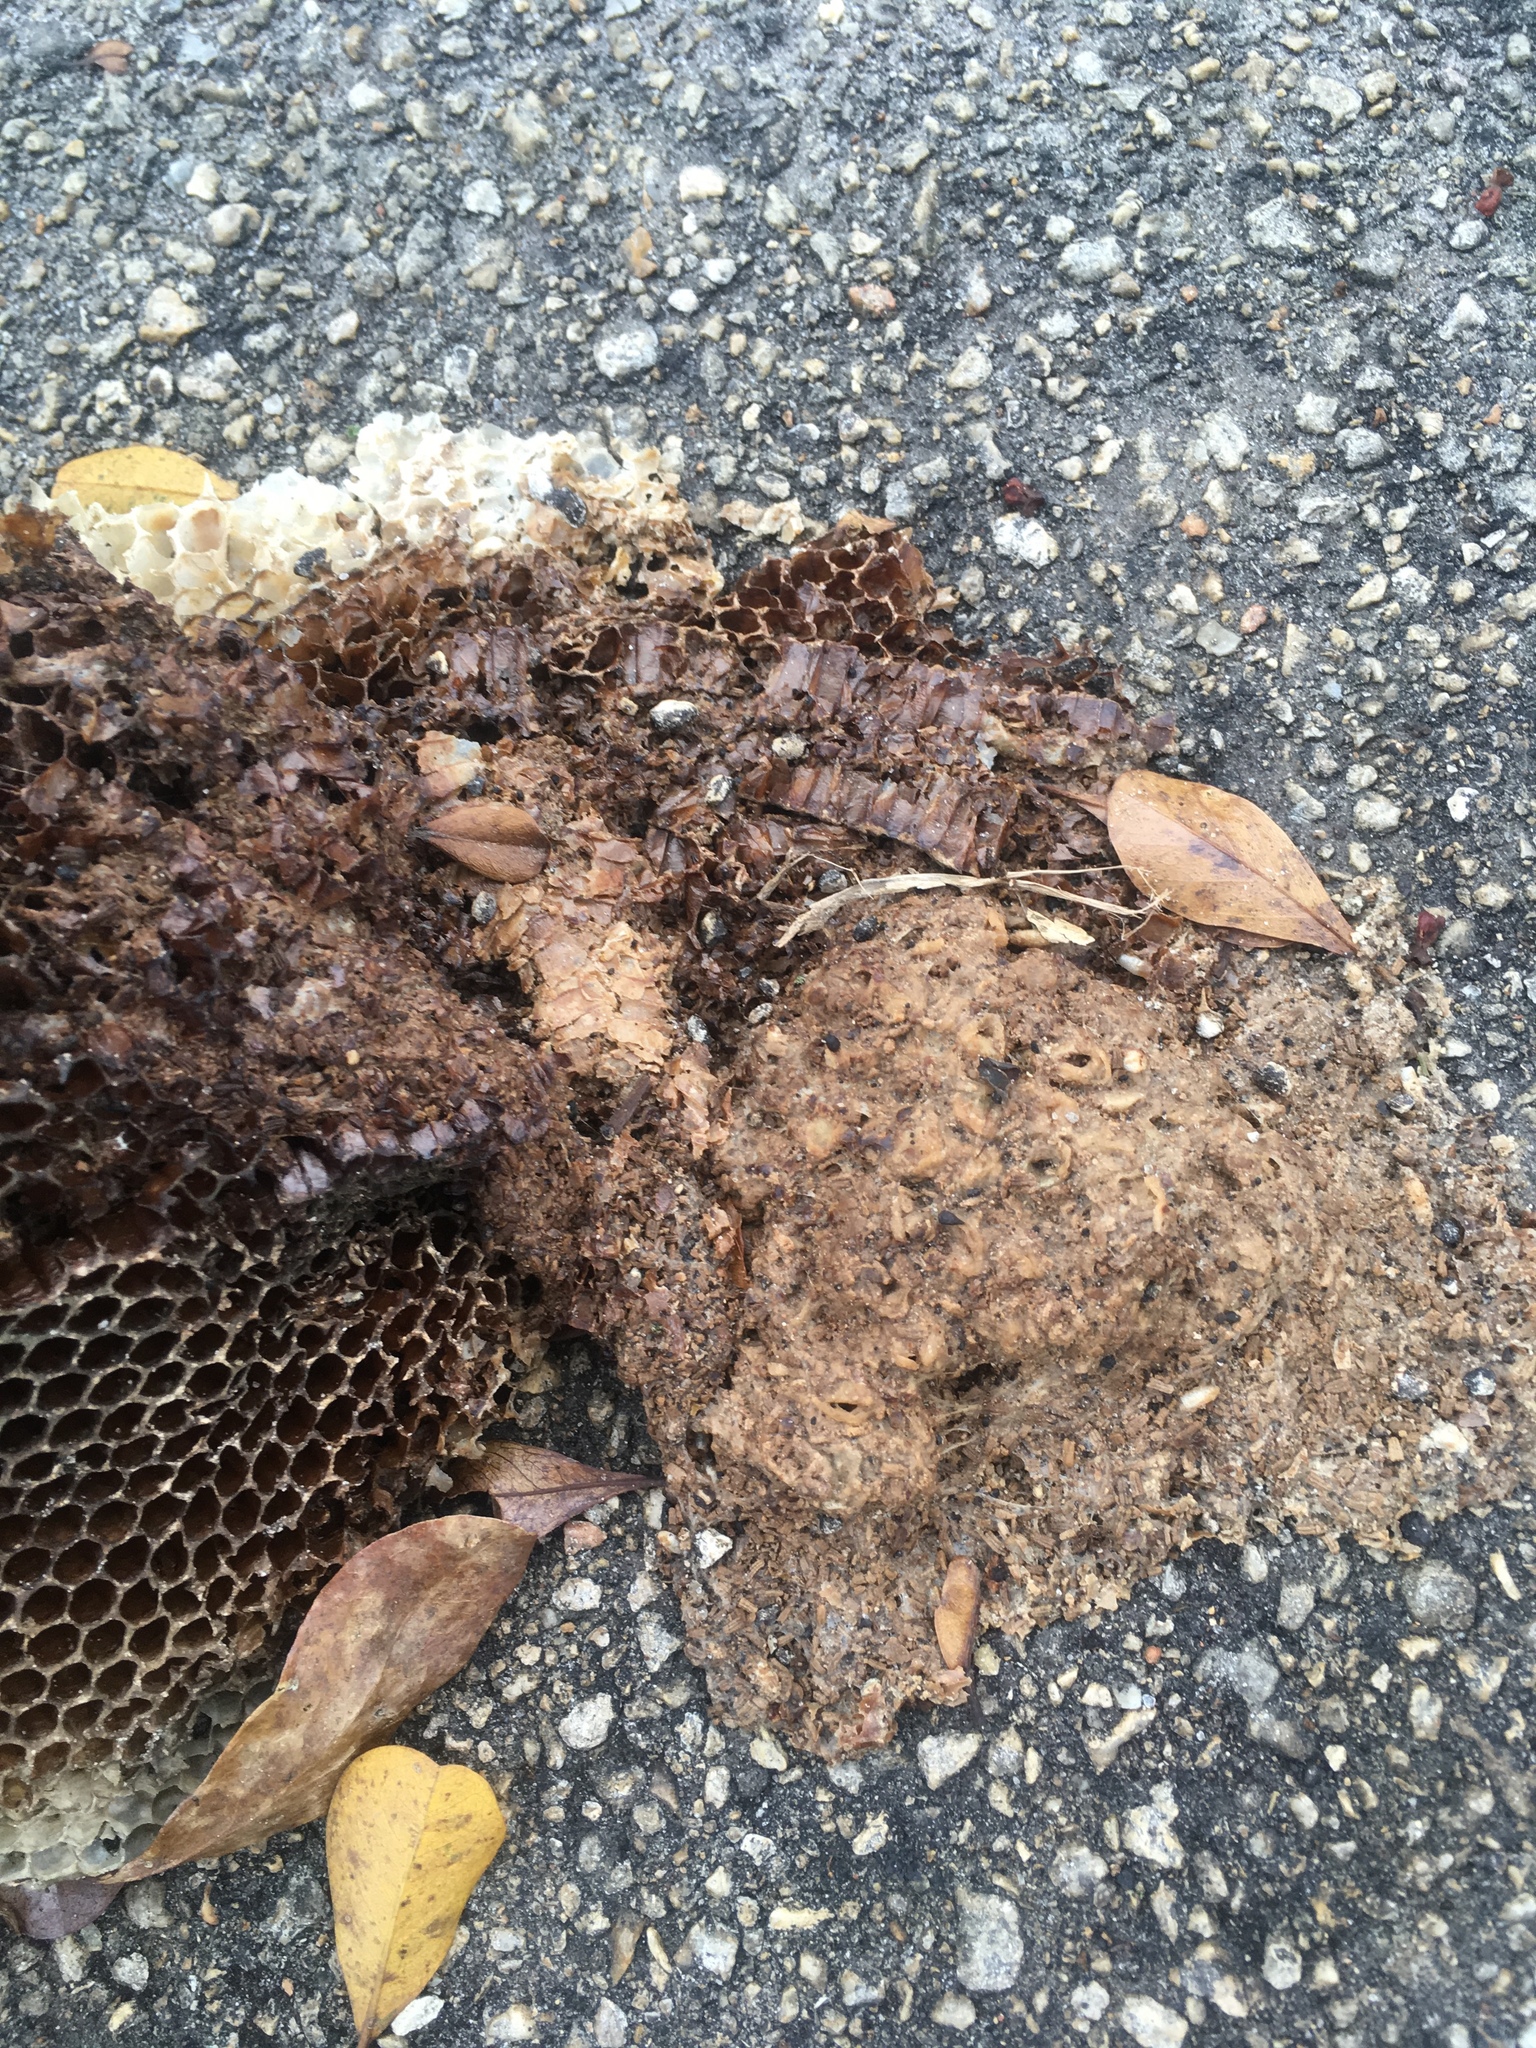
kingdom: Animalia
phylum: Arthropoda
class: Insecta
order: Hymenoptera
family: Apidae
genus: Apis
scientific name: Apis mellifera
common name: Honey bee
